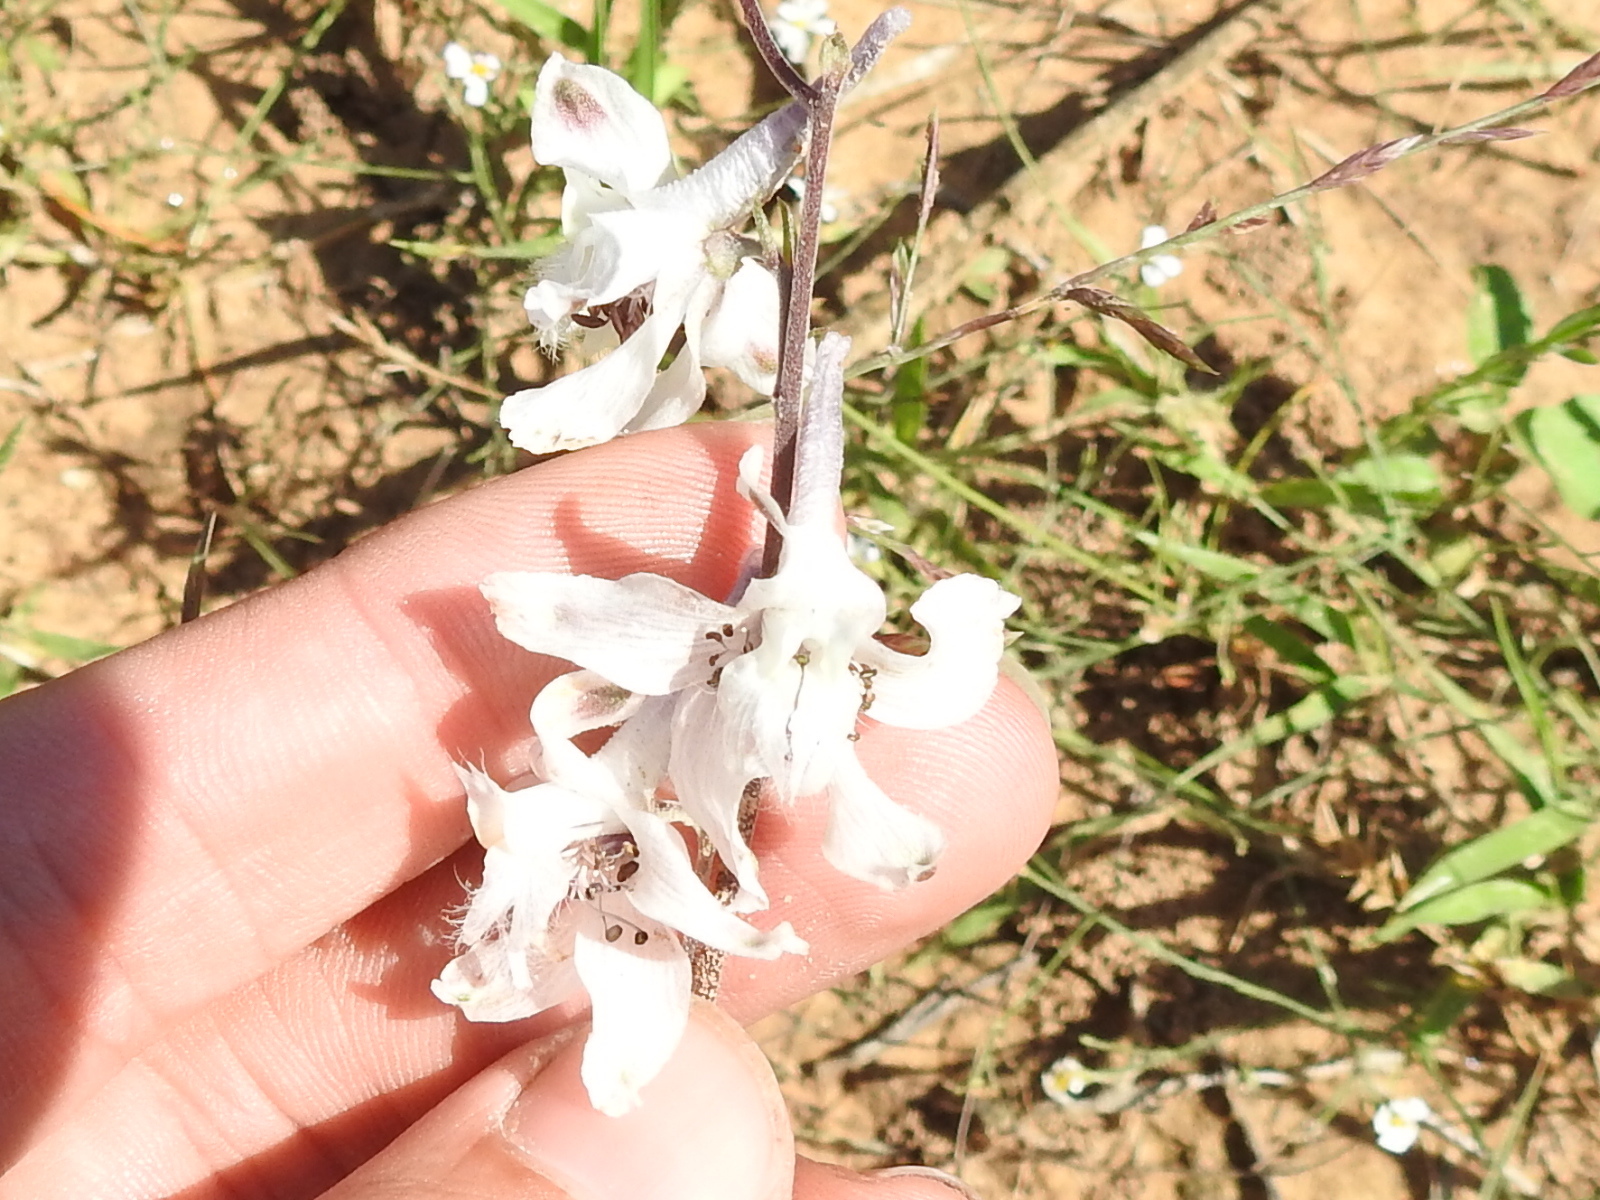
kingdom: Plantae
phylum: Tracheophyta
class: Magnoliopsida
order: Ranunculales
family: Ranunculaceae
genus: Delphinium
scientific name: Delphinium carolinianum
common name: Carolina larkspur
